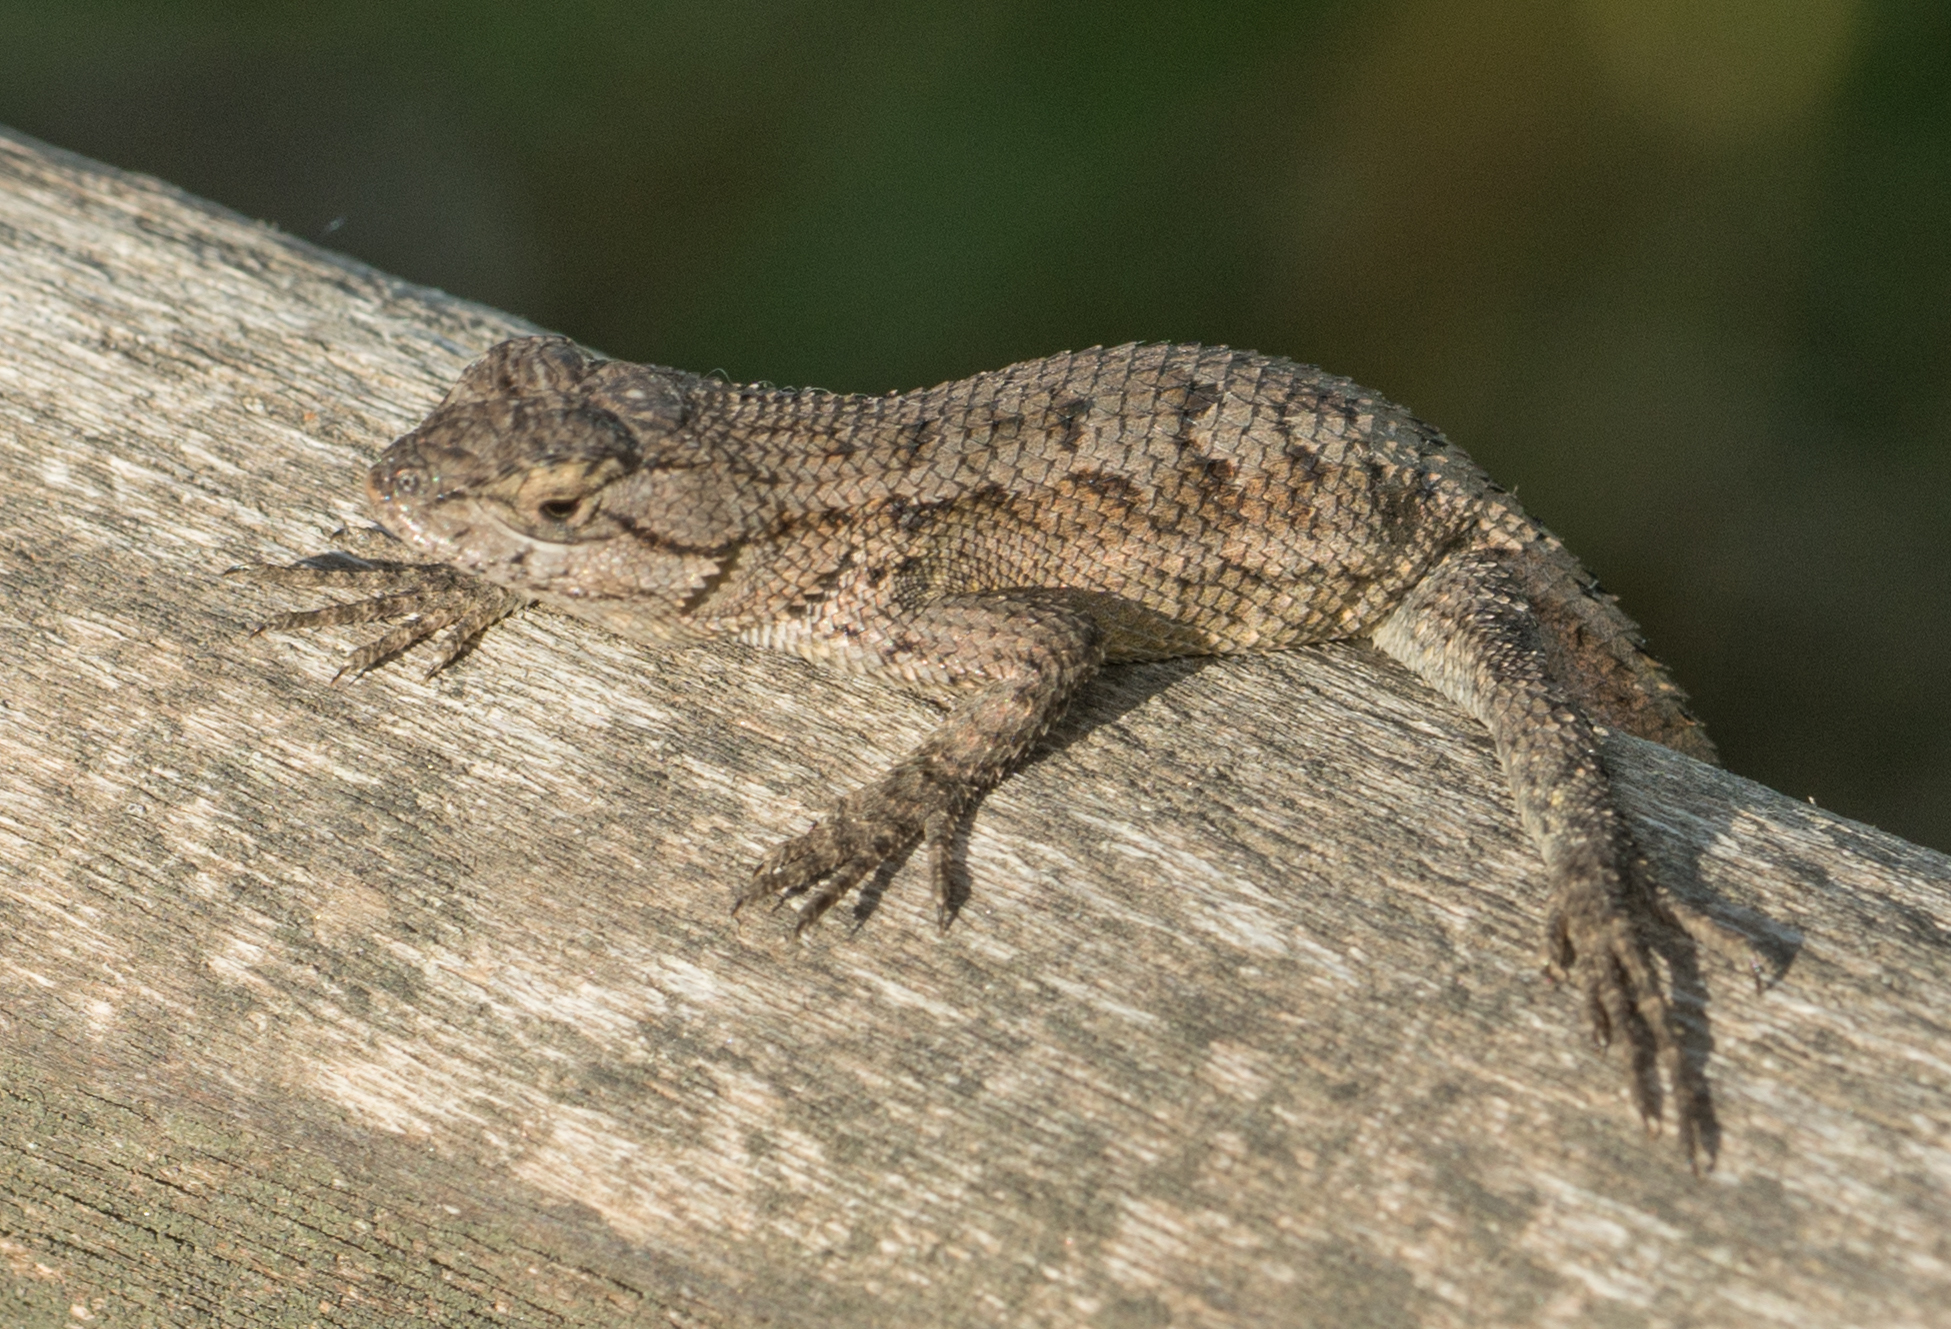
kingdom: Animalia
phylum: Chordata
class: Squamata
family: Phrynosomatidae
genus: Sceloporus
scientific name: Sceloporus occidentalis
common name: Western fence lizard
